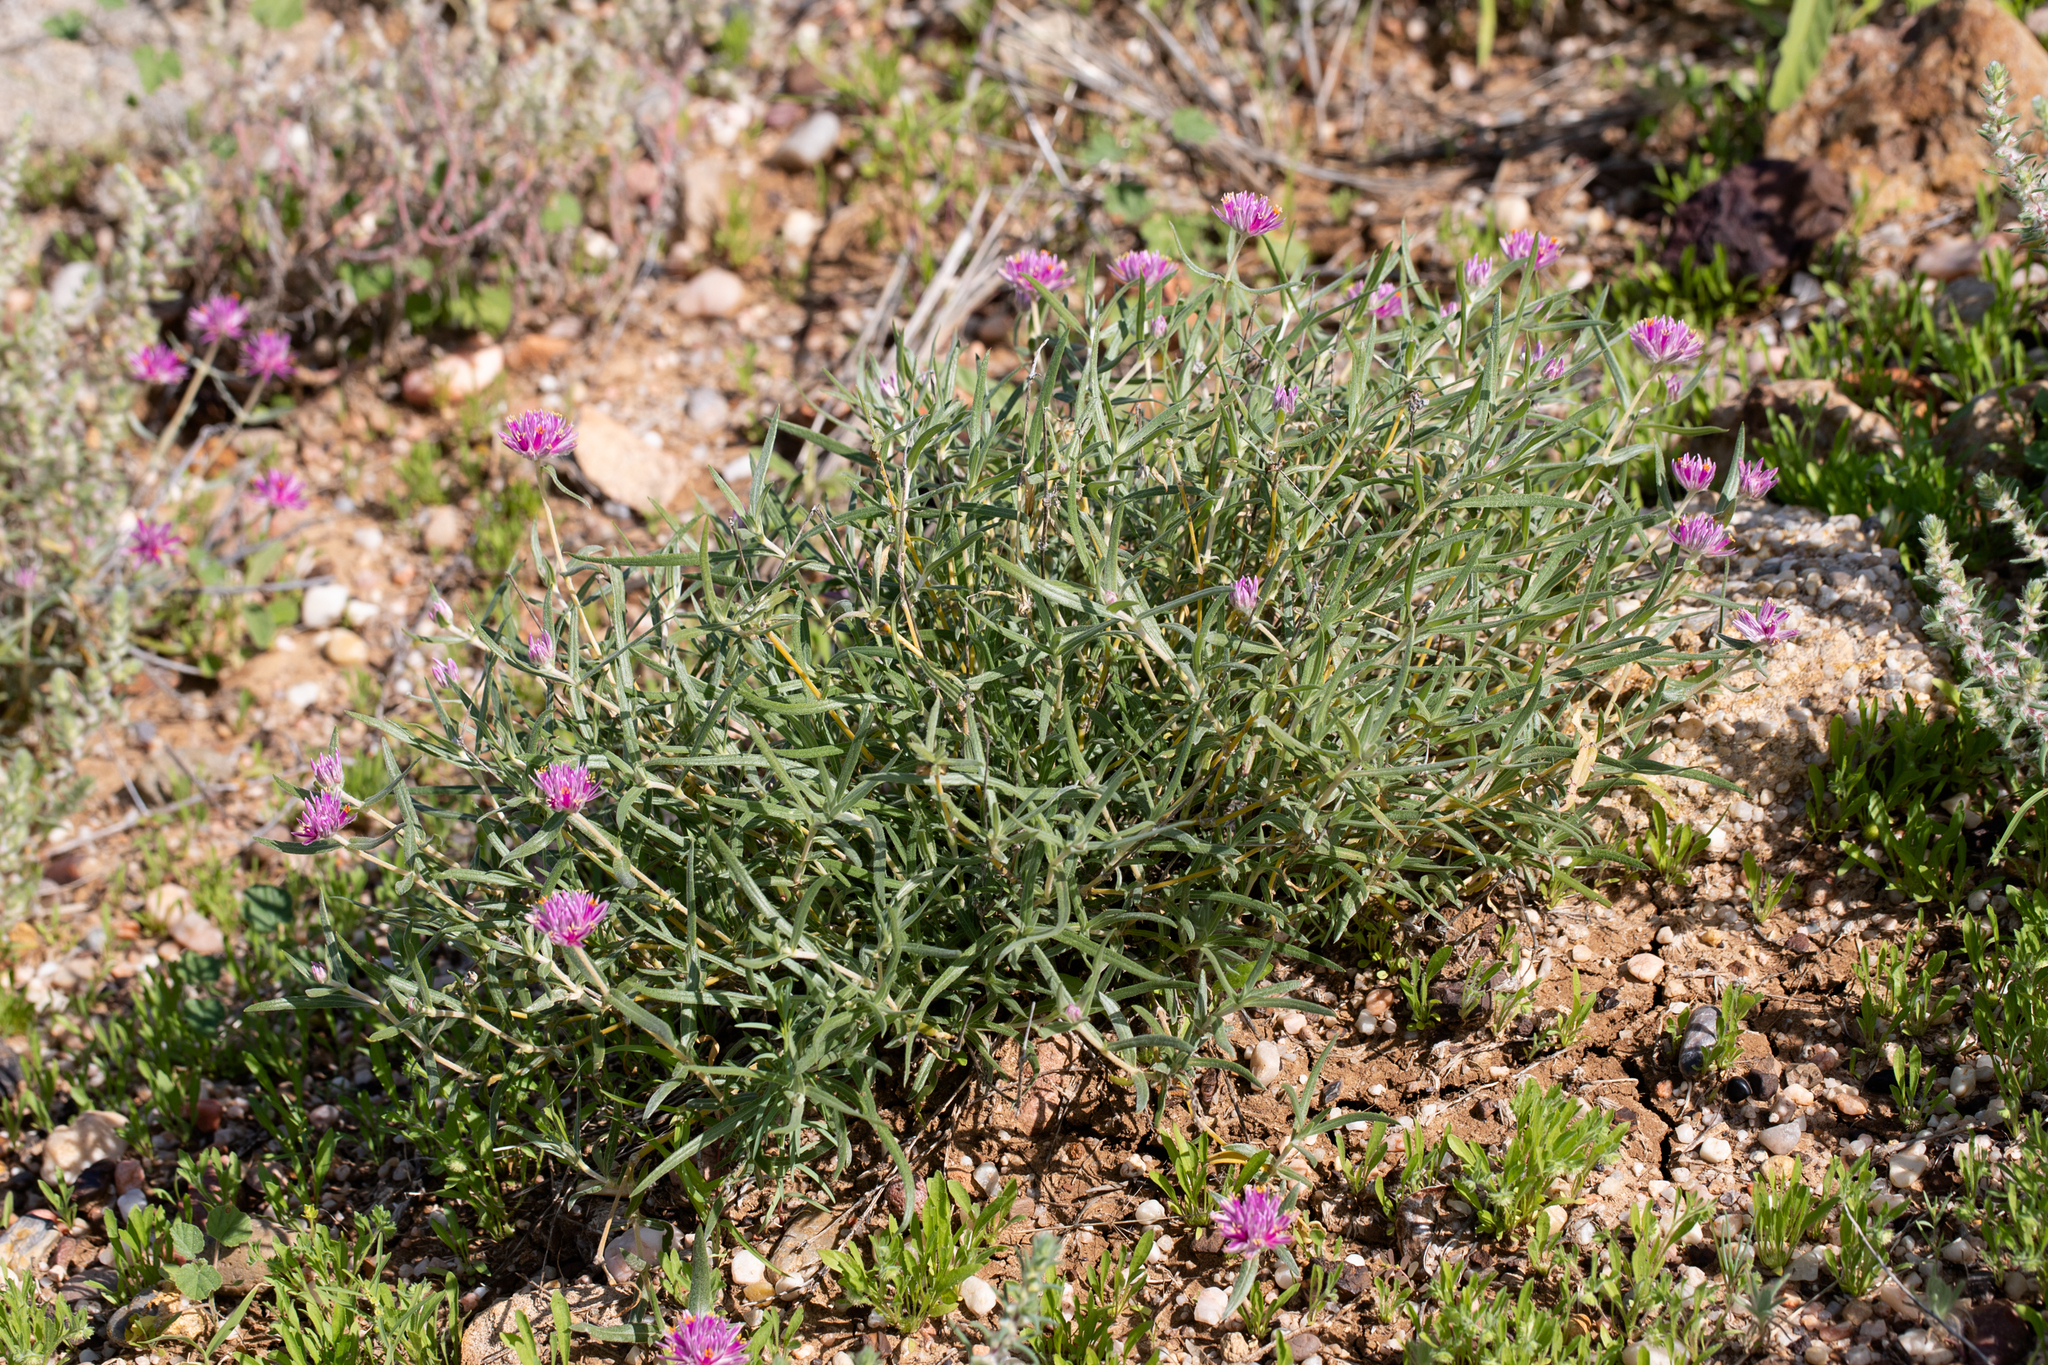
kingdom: Plantae
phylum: Tracheophyta
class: Magnoliopsida
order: Caryophyllales
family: Amaranthaceae
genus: Gomphrena
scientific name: Gomphrena leontopodioides
